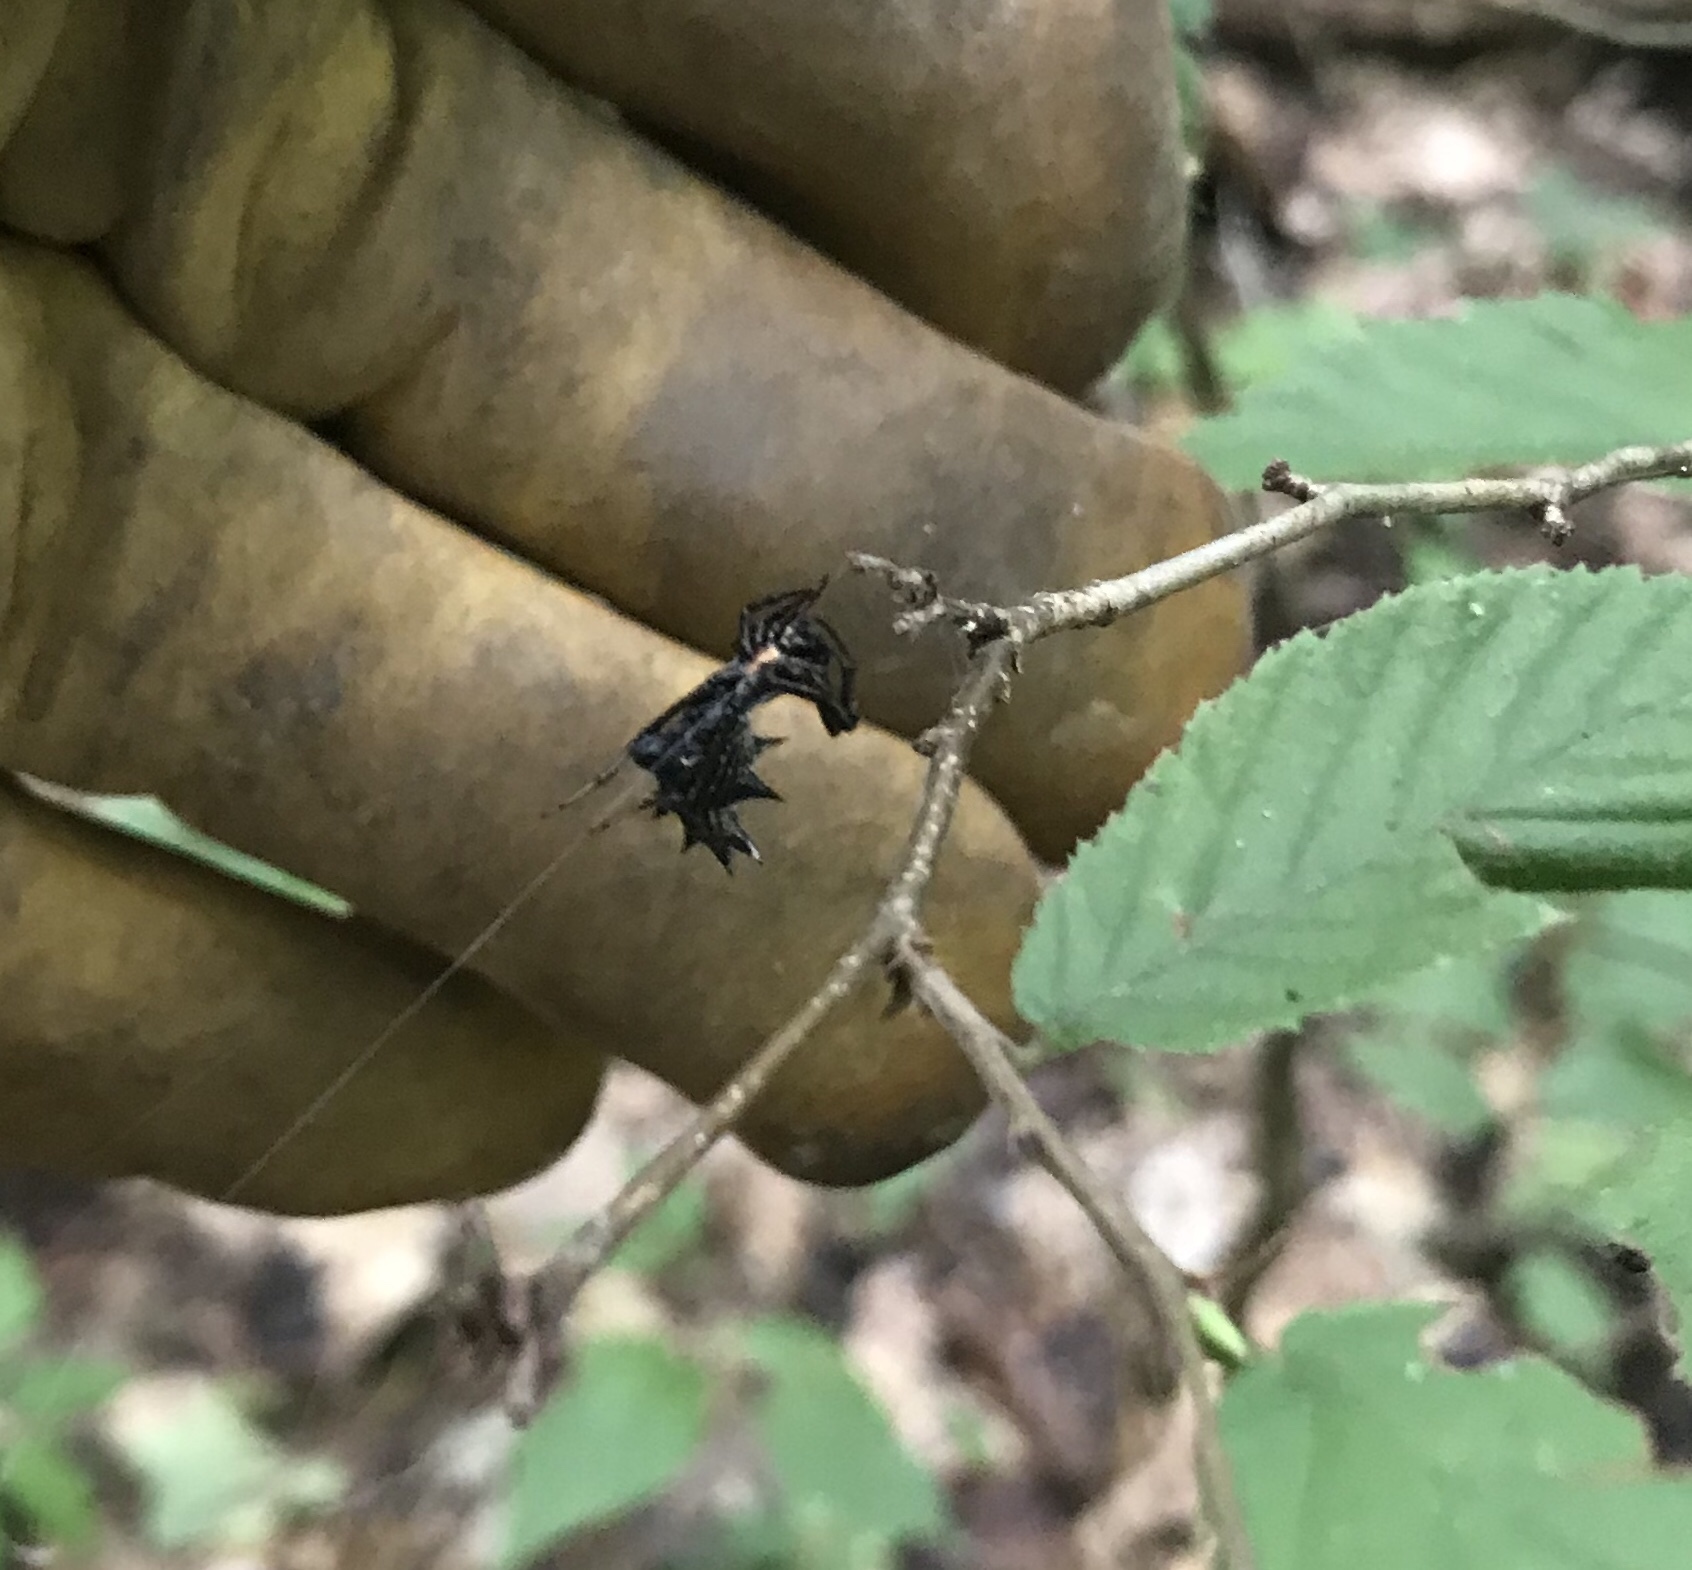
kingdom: Animalia
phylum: Arthropoda
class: Arachnida
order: Araneae
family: Araneidae
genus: Micrathena
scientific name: Micrathena gracilis
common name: Orb weavers
